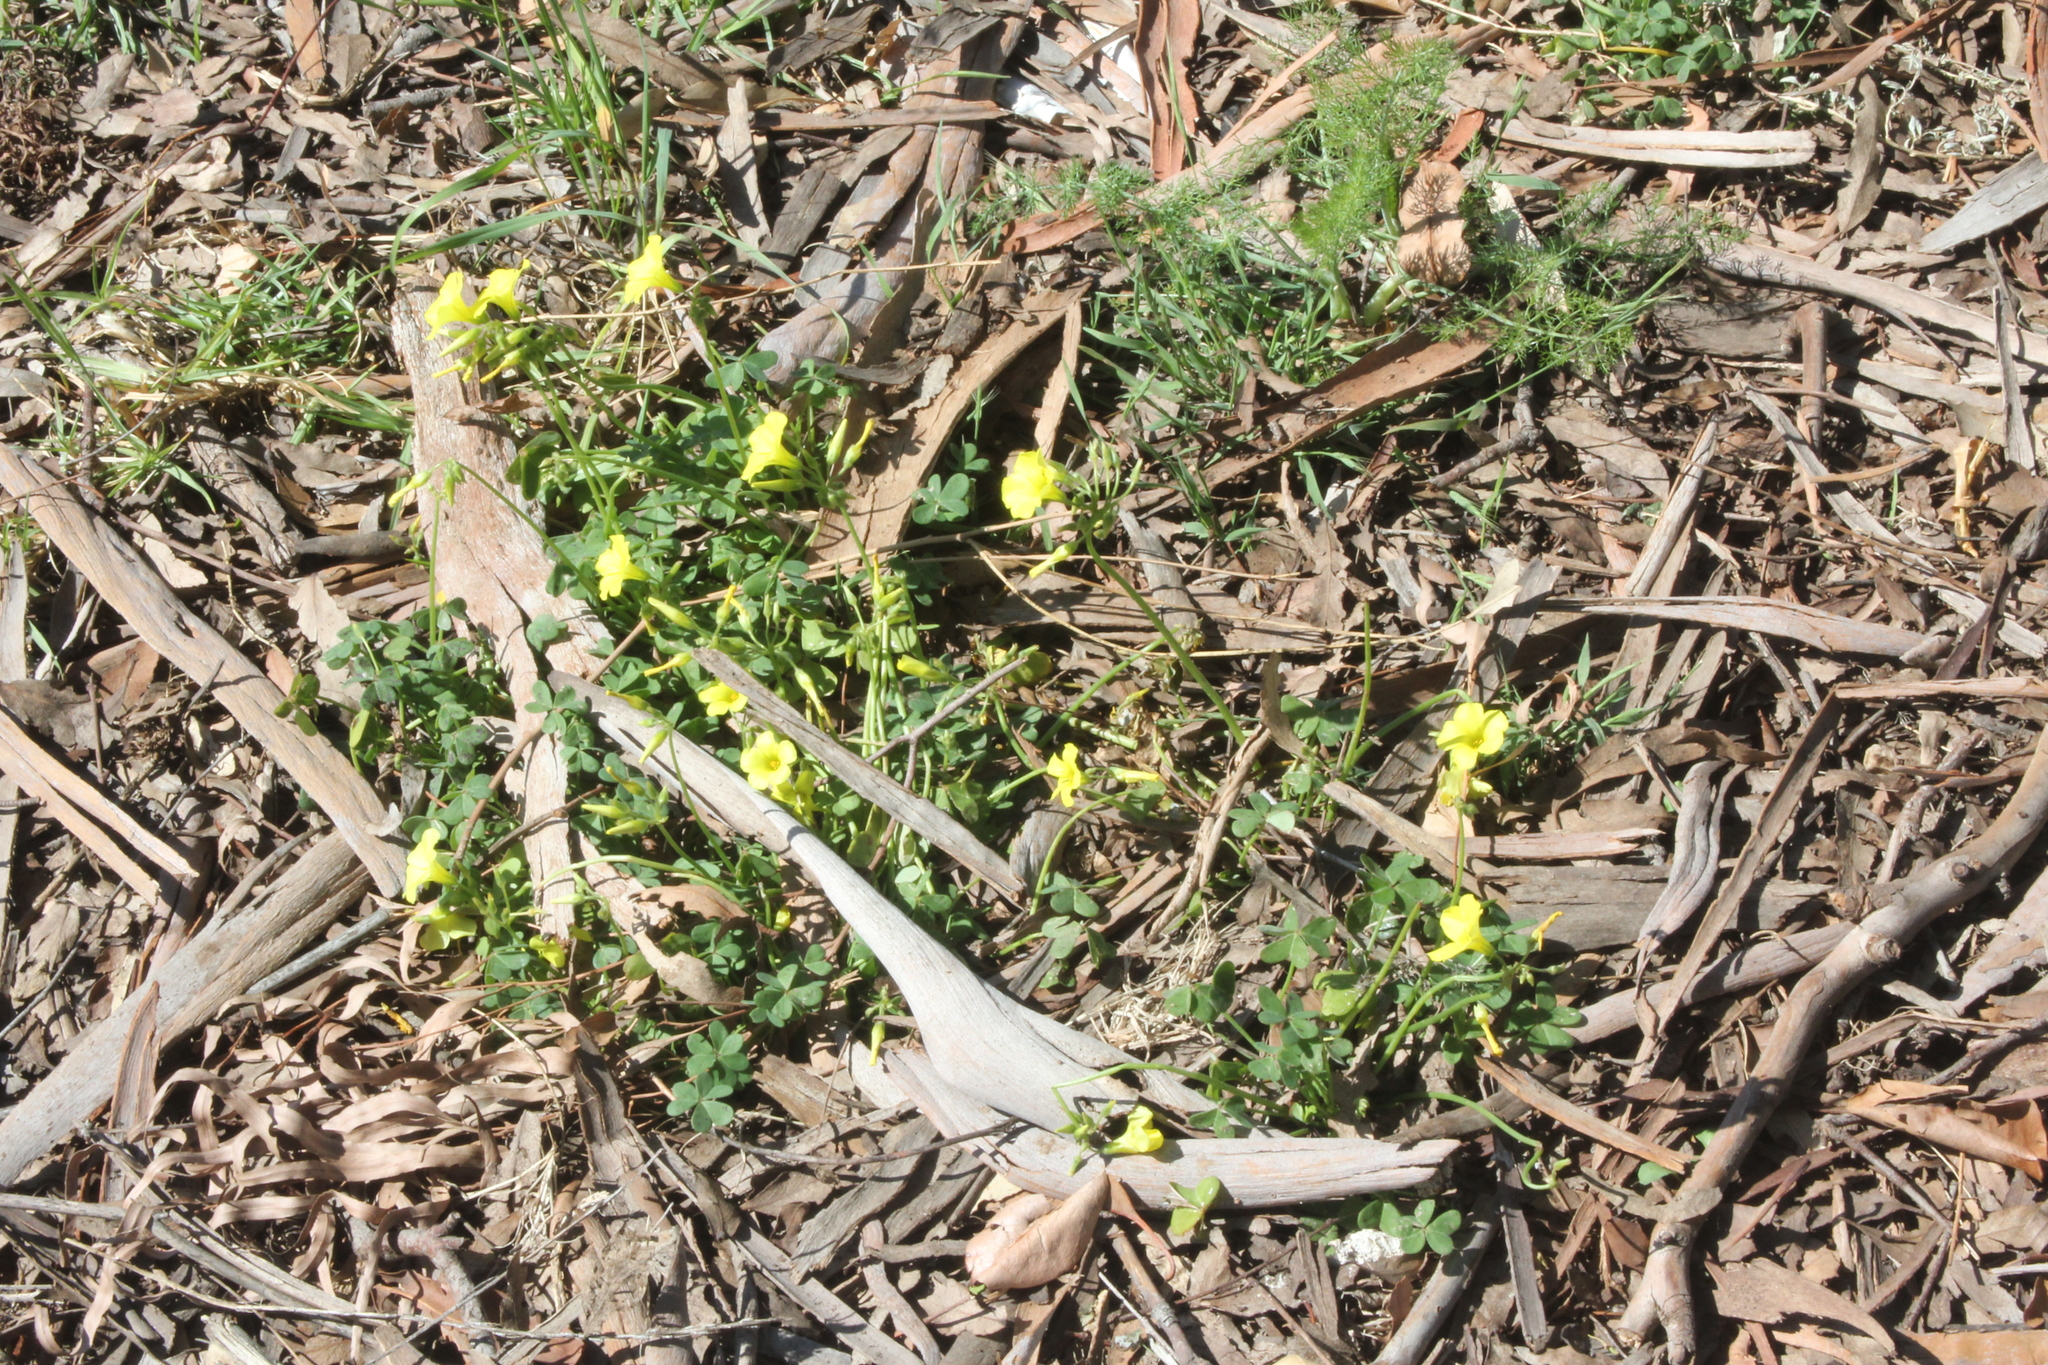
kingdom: Plantae
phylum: Tracheophyta
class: Magnoliopsida
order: Oxalidales
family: Oxalidaceae
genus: Oxalis
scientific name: Oxalis pes-caprae
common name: Bermuda-buttercup
